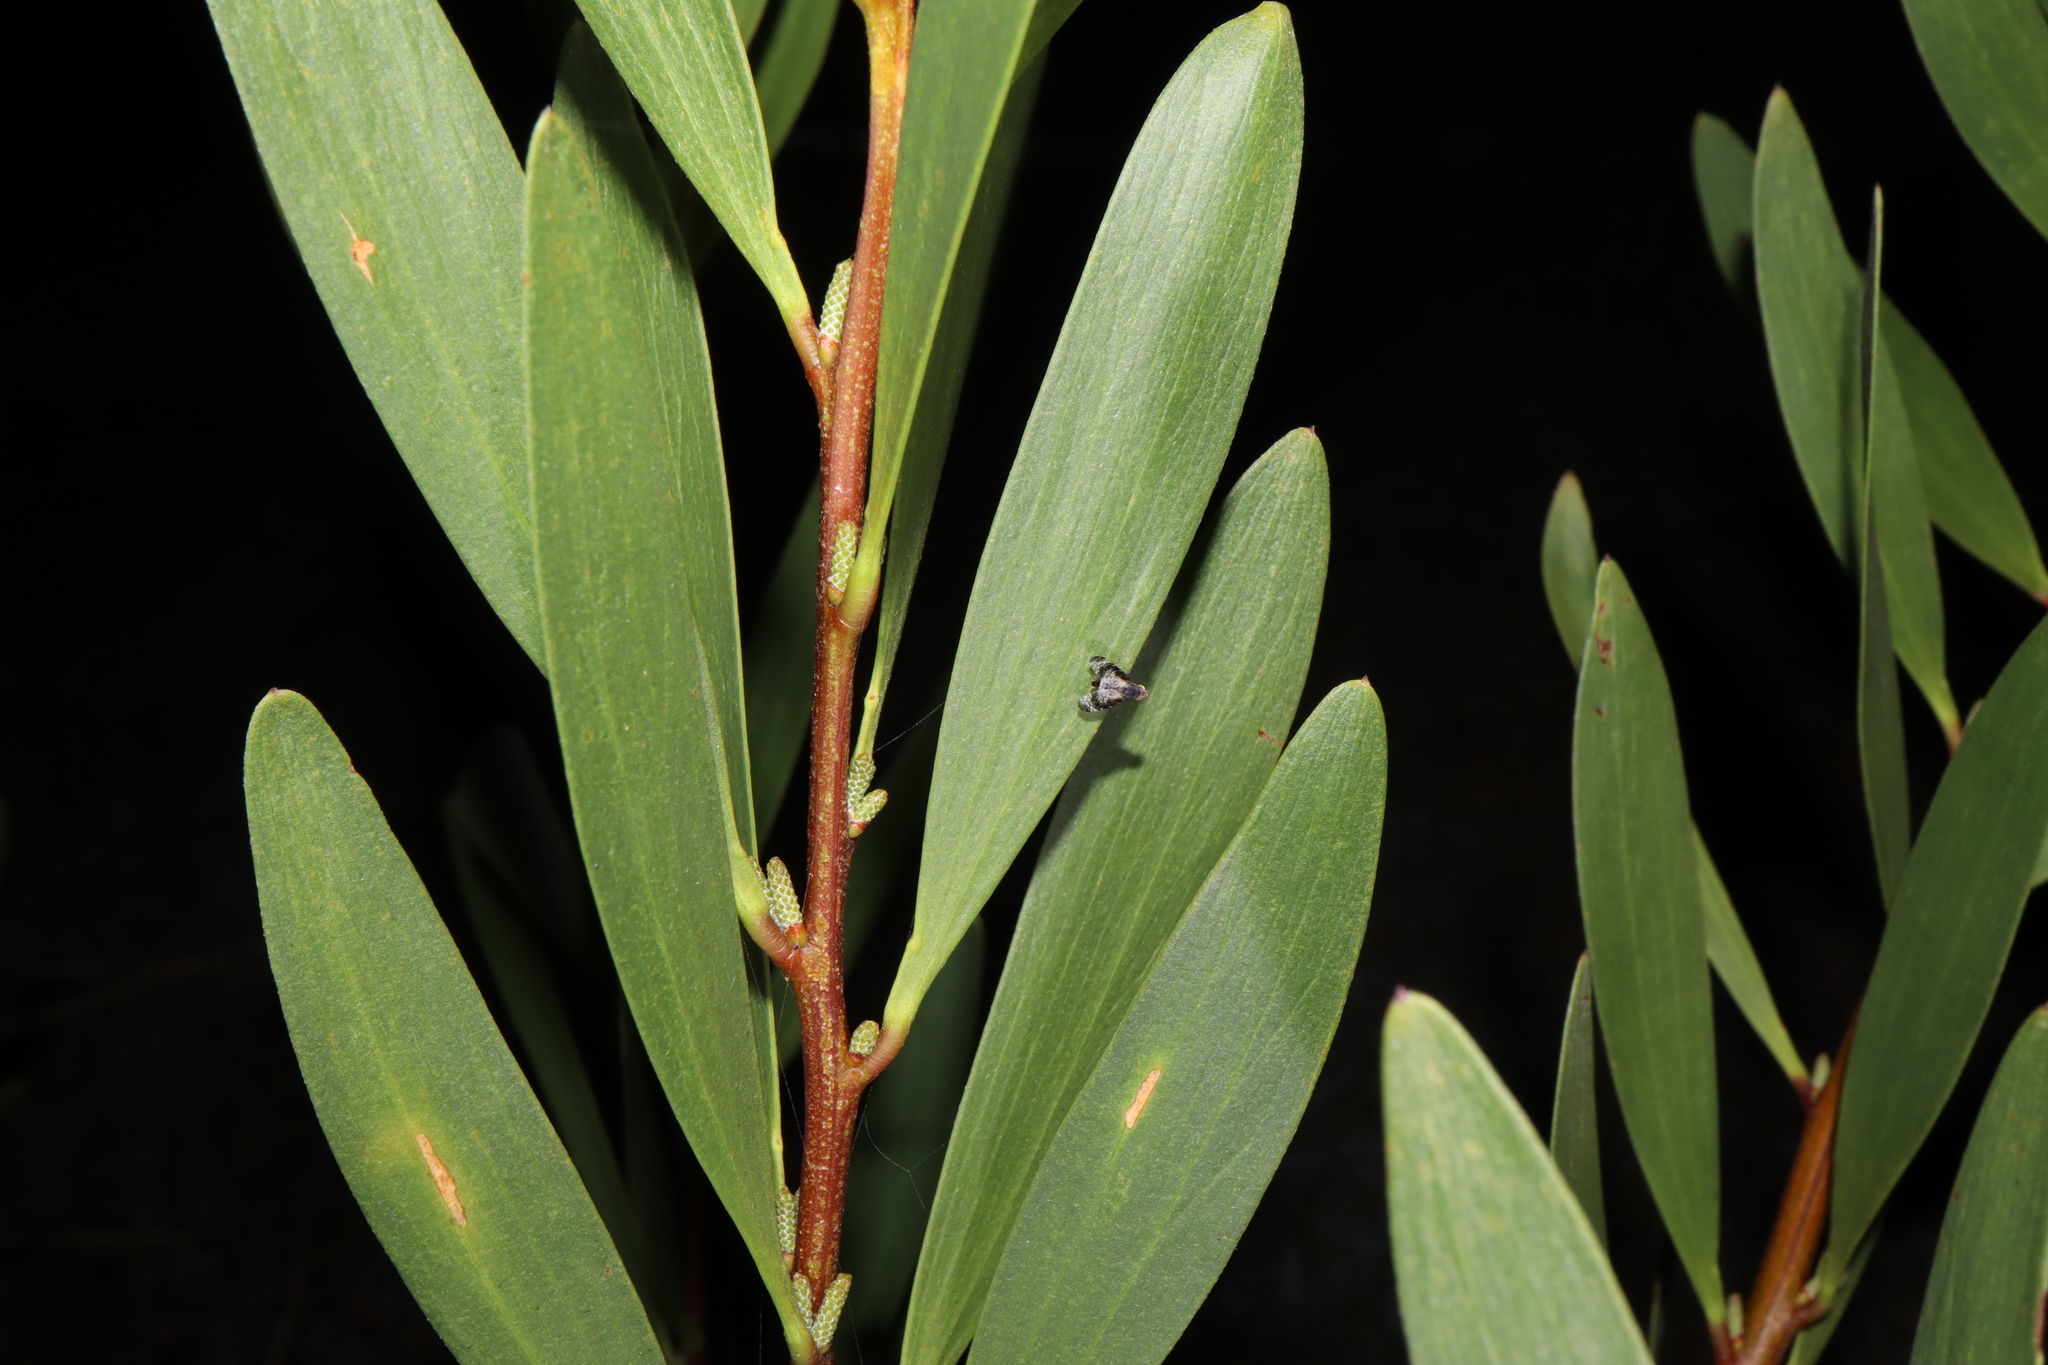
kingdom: Animalia
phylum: Arthropoda
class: Insecta
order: Diptera
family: Tephritidae
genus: Mesoclanis
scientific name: Mesoclanis polana
